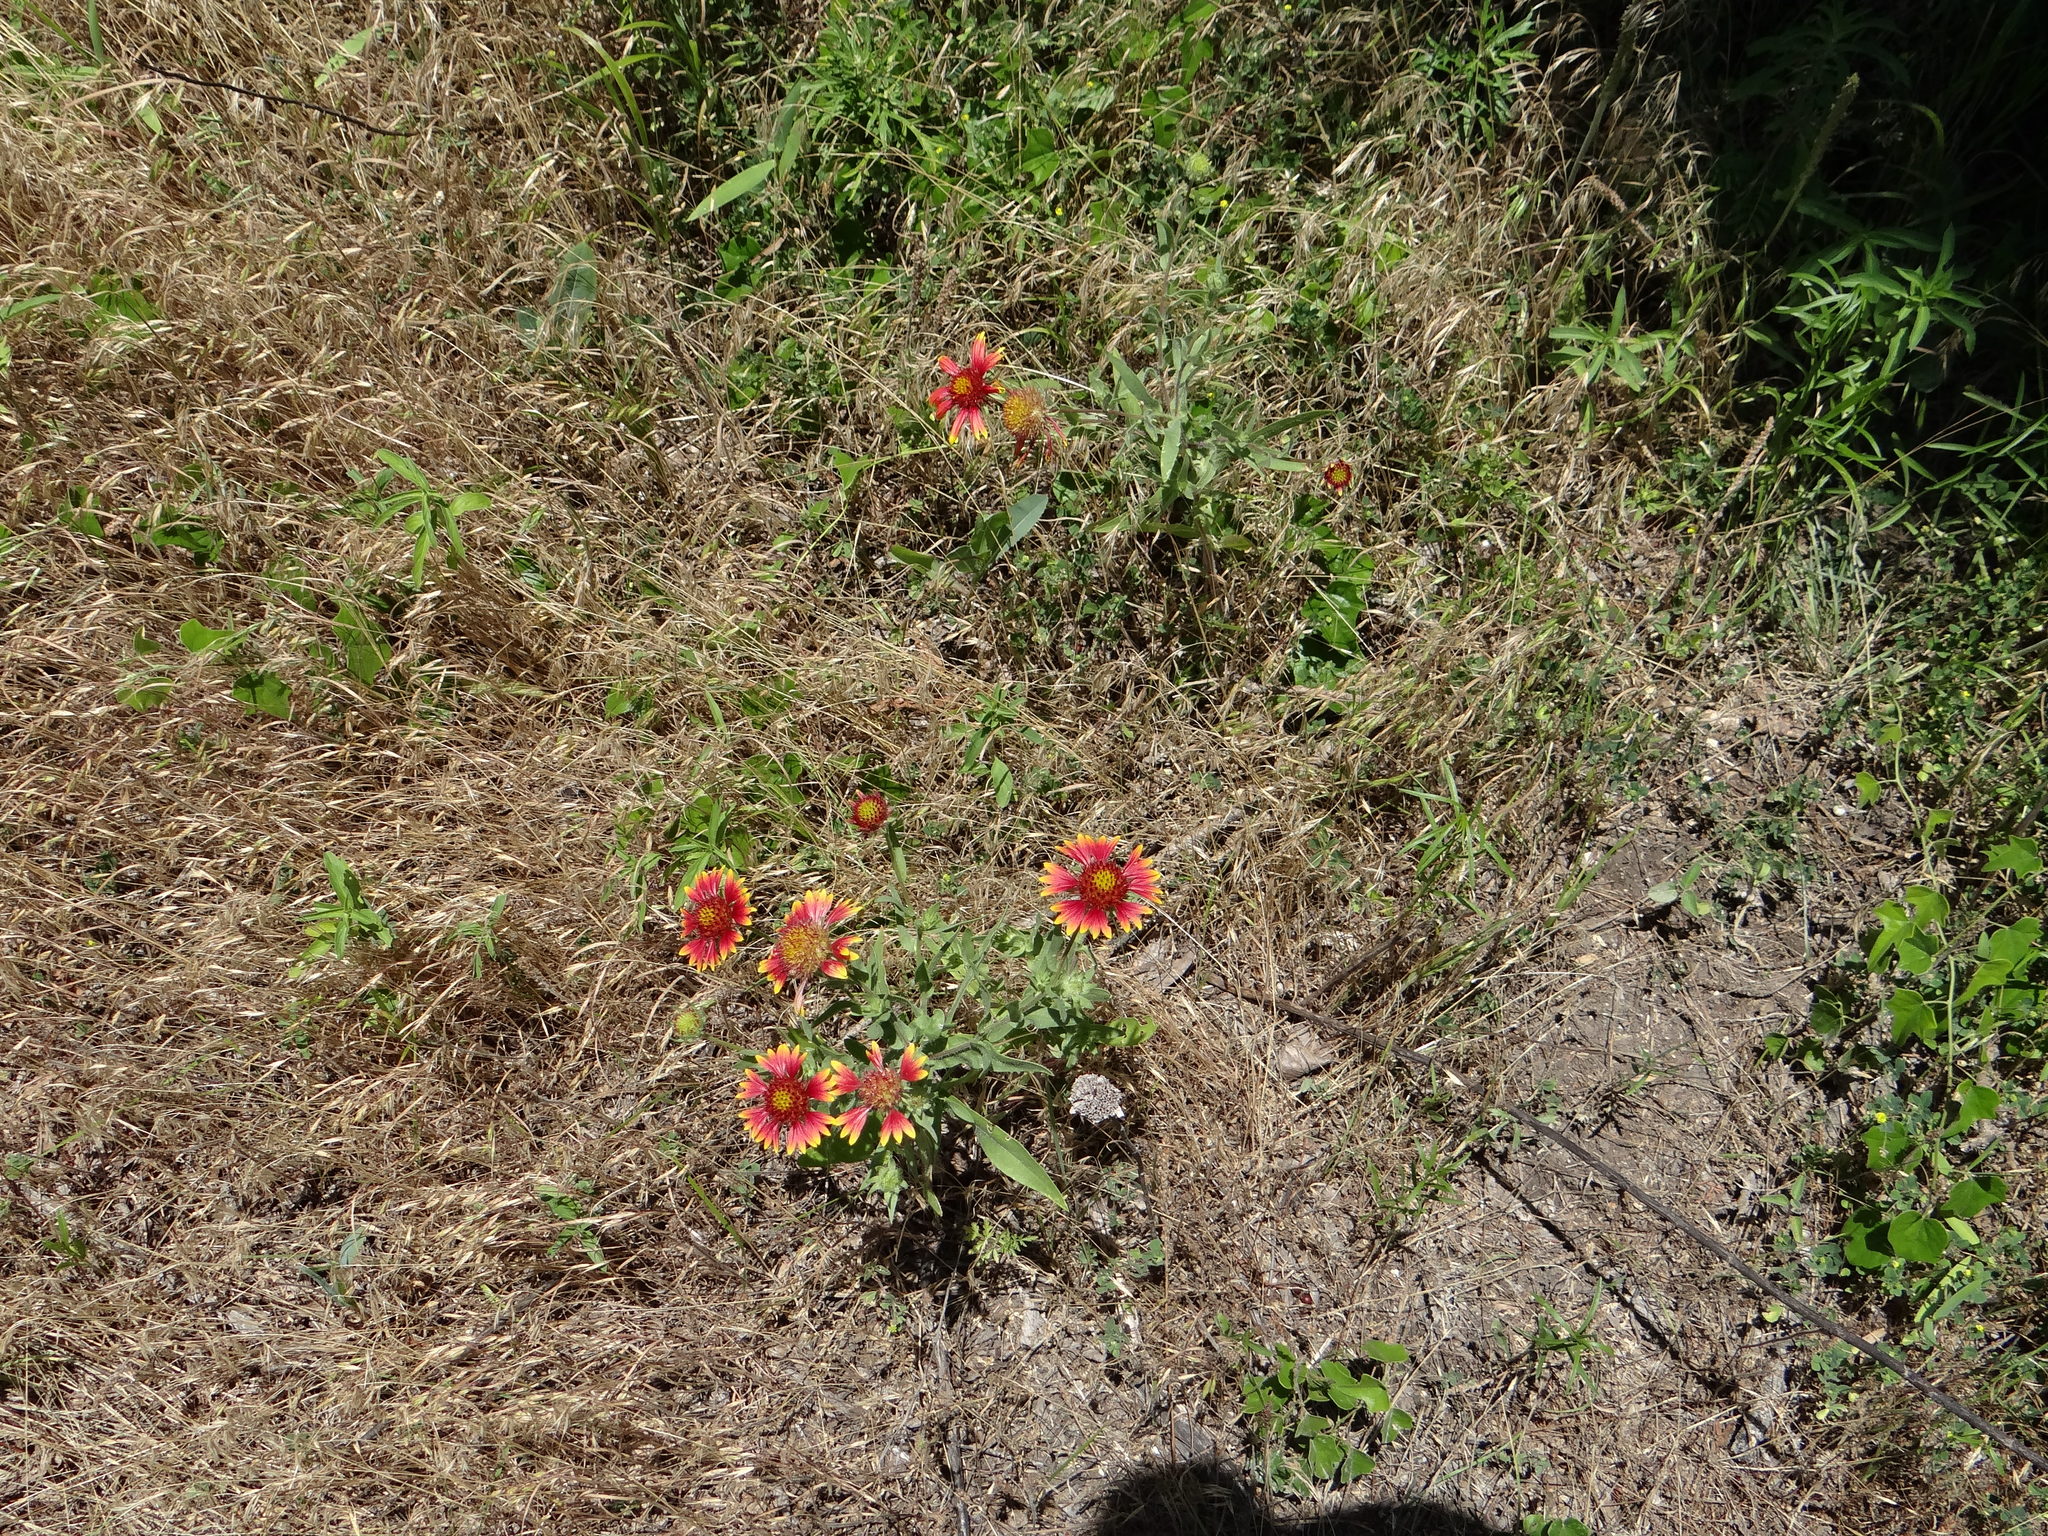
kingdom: Plantae
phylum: Tracheophyta
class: Magnoliopsida
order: Asterales
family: Asteraceae
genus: Gaillardia
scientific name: Gaillardia pulchella
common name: Firewheel
